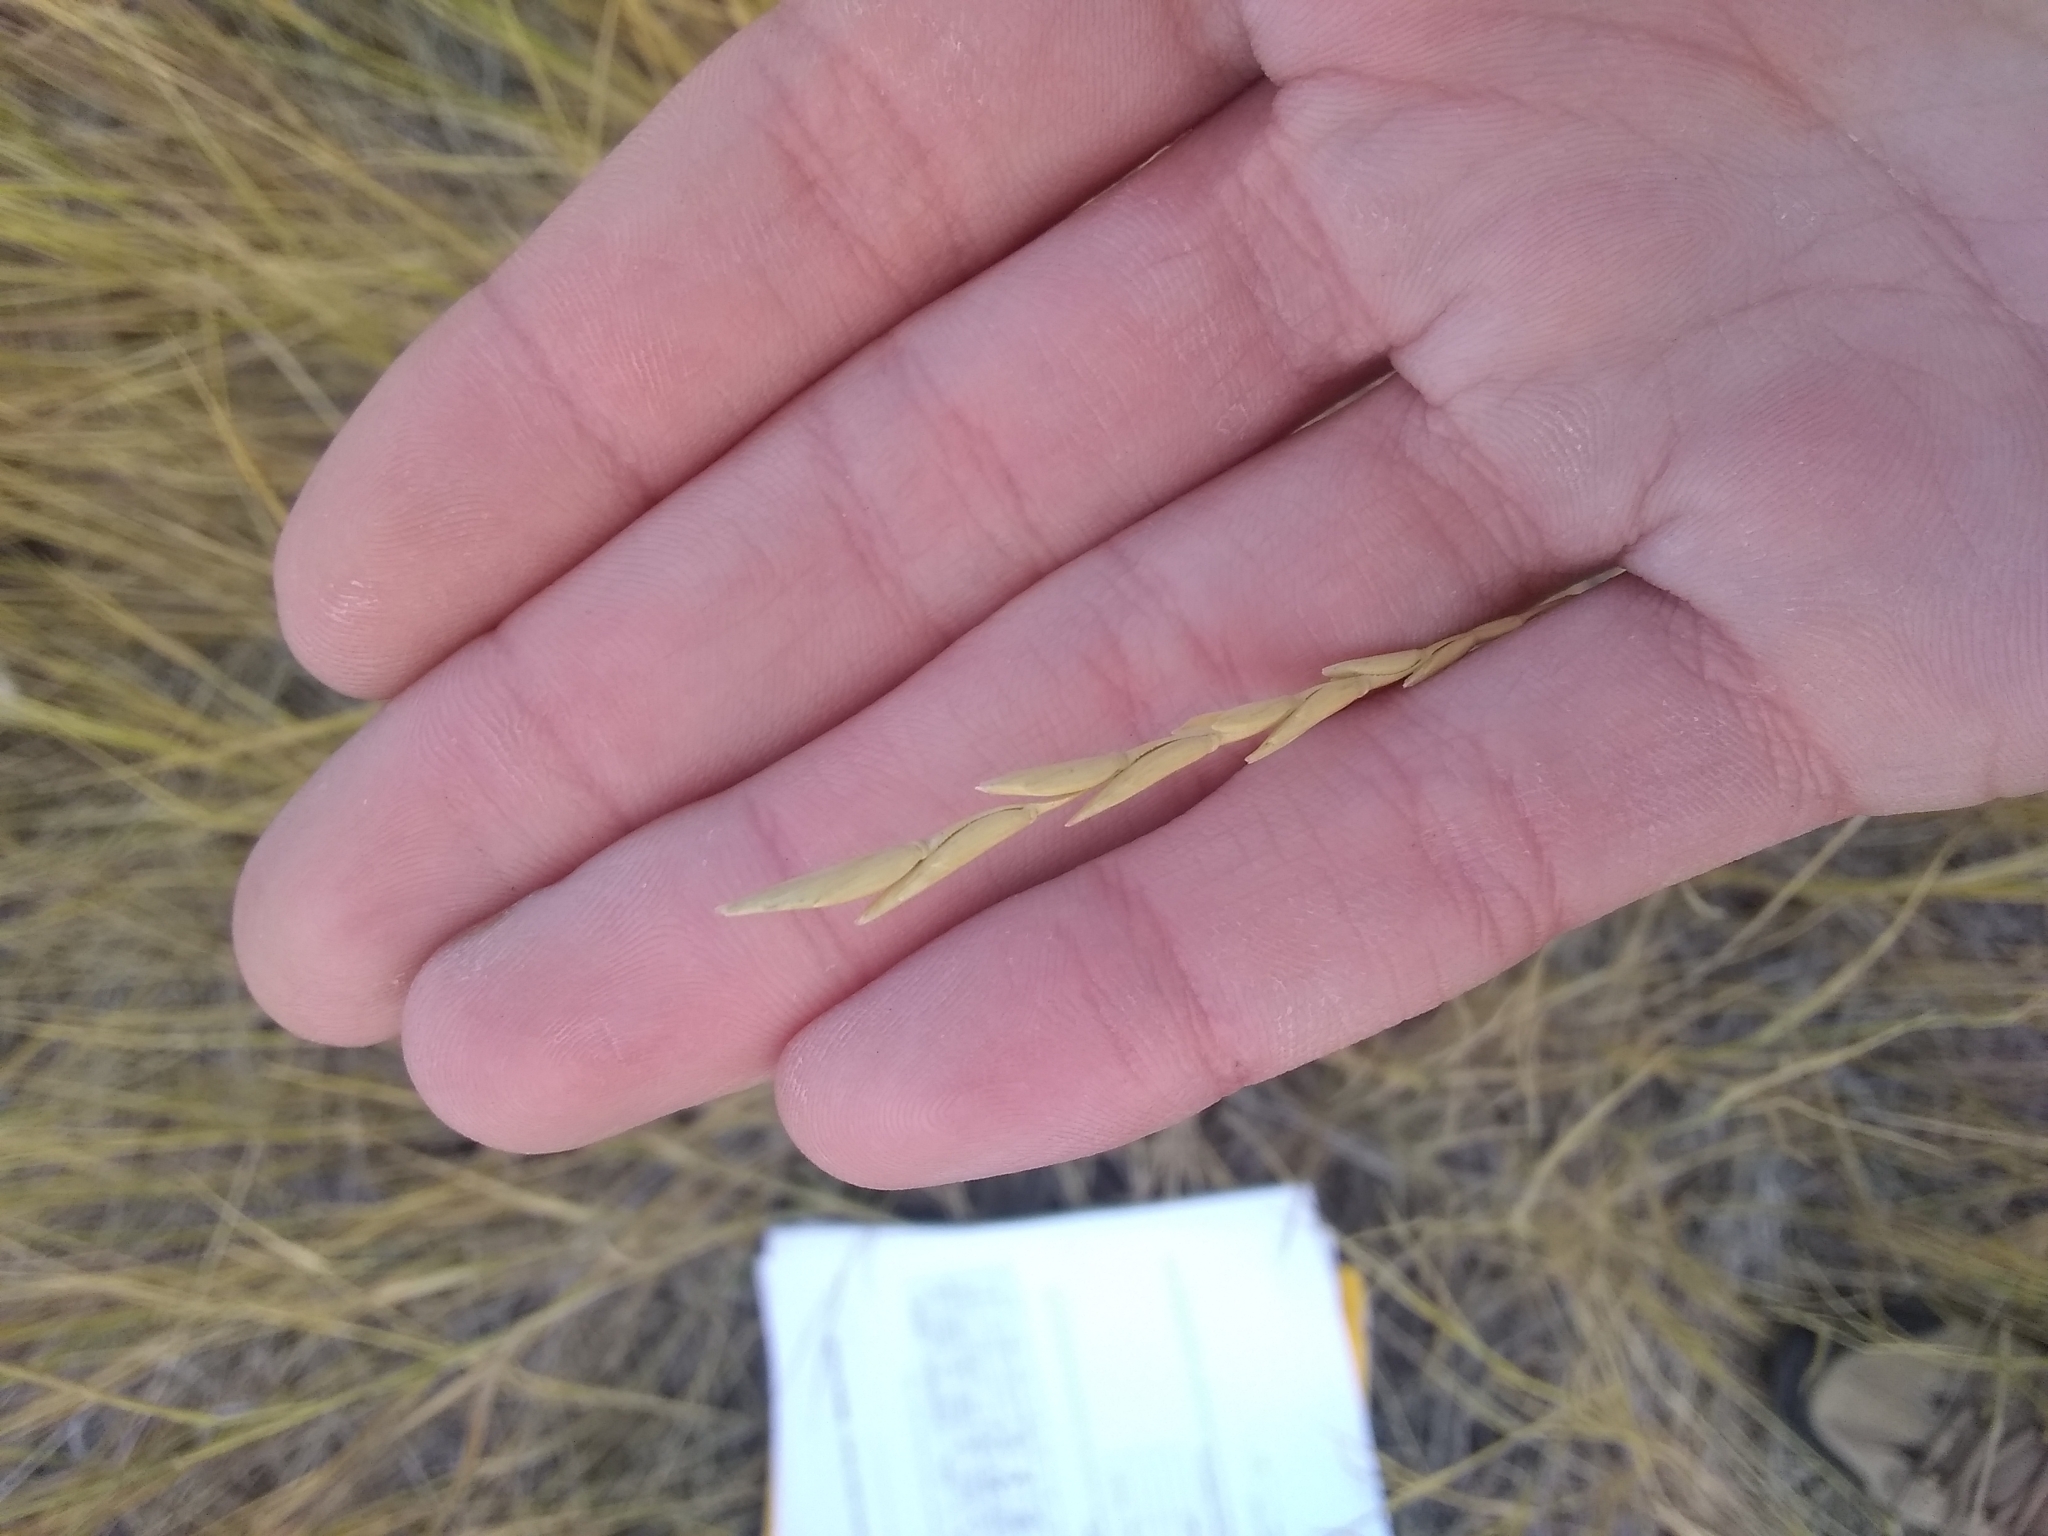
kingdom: Plantae
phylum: Tracheophyta
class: Liliopsida
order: Poales
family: Poaceae
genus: Thinopyrum
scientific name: Thinopyrum intermedium
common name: Intermediate wheatgrass
